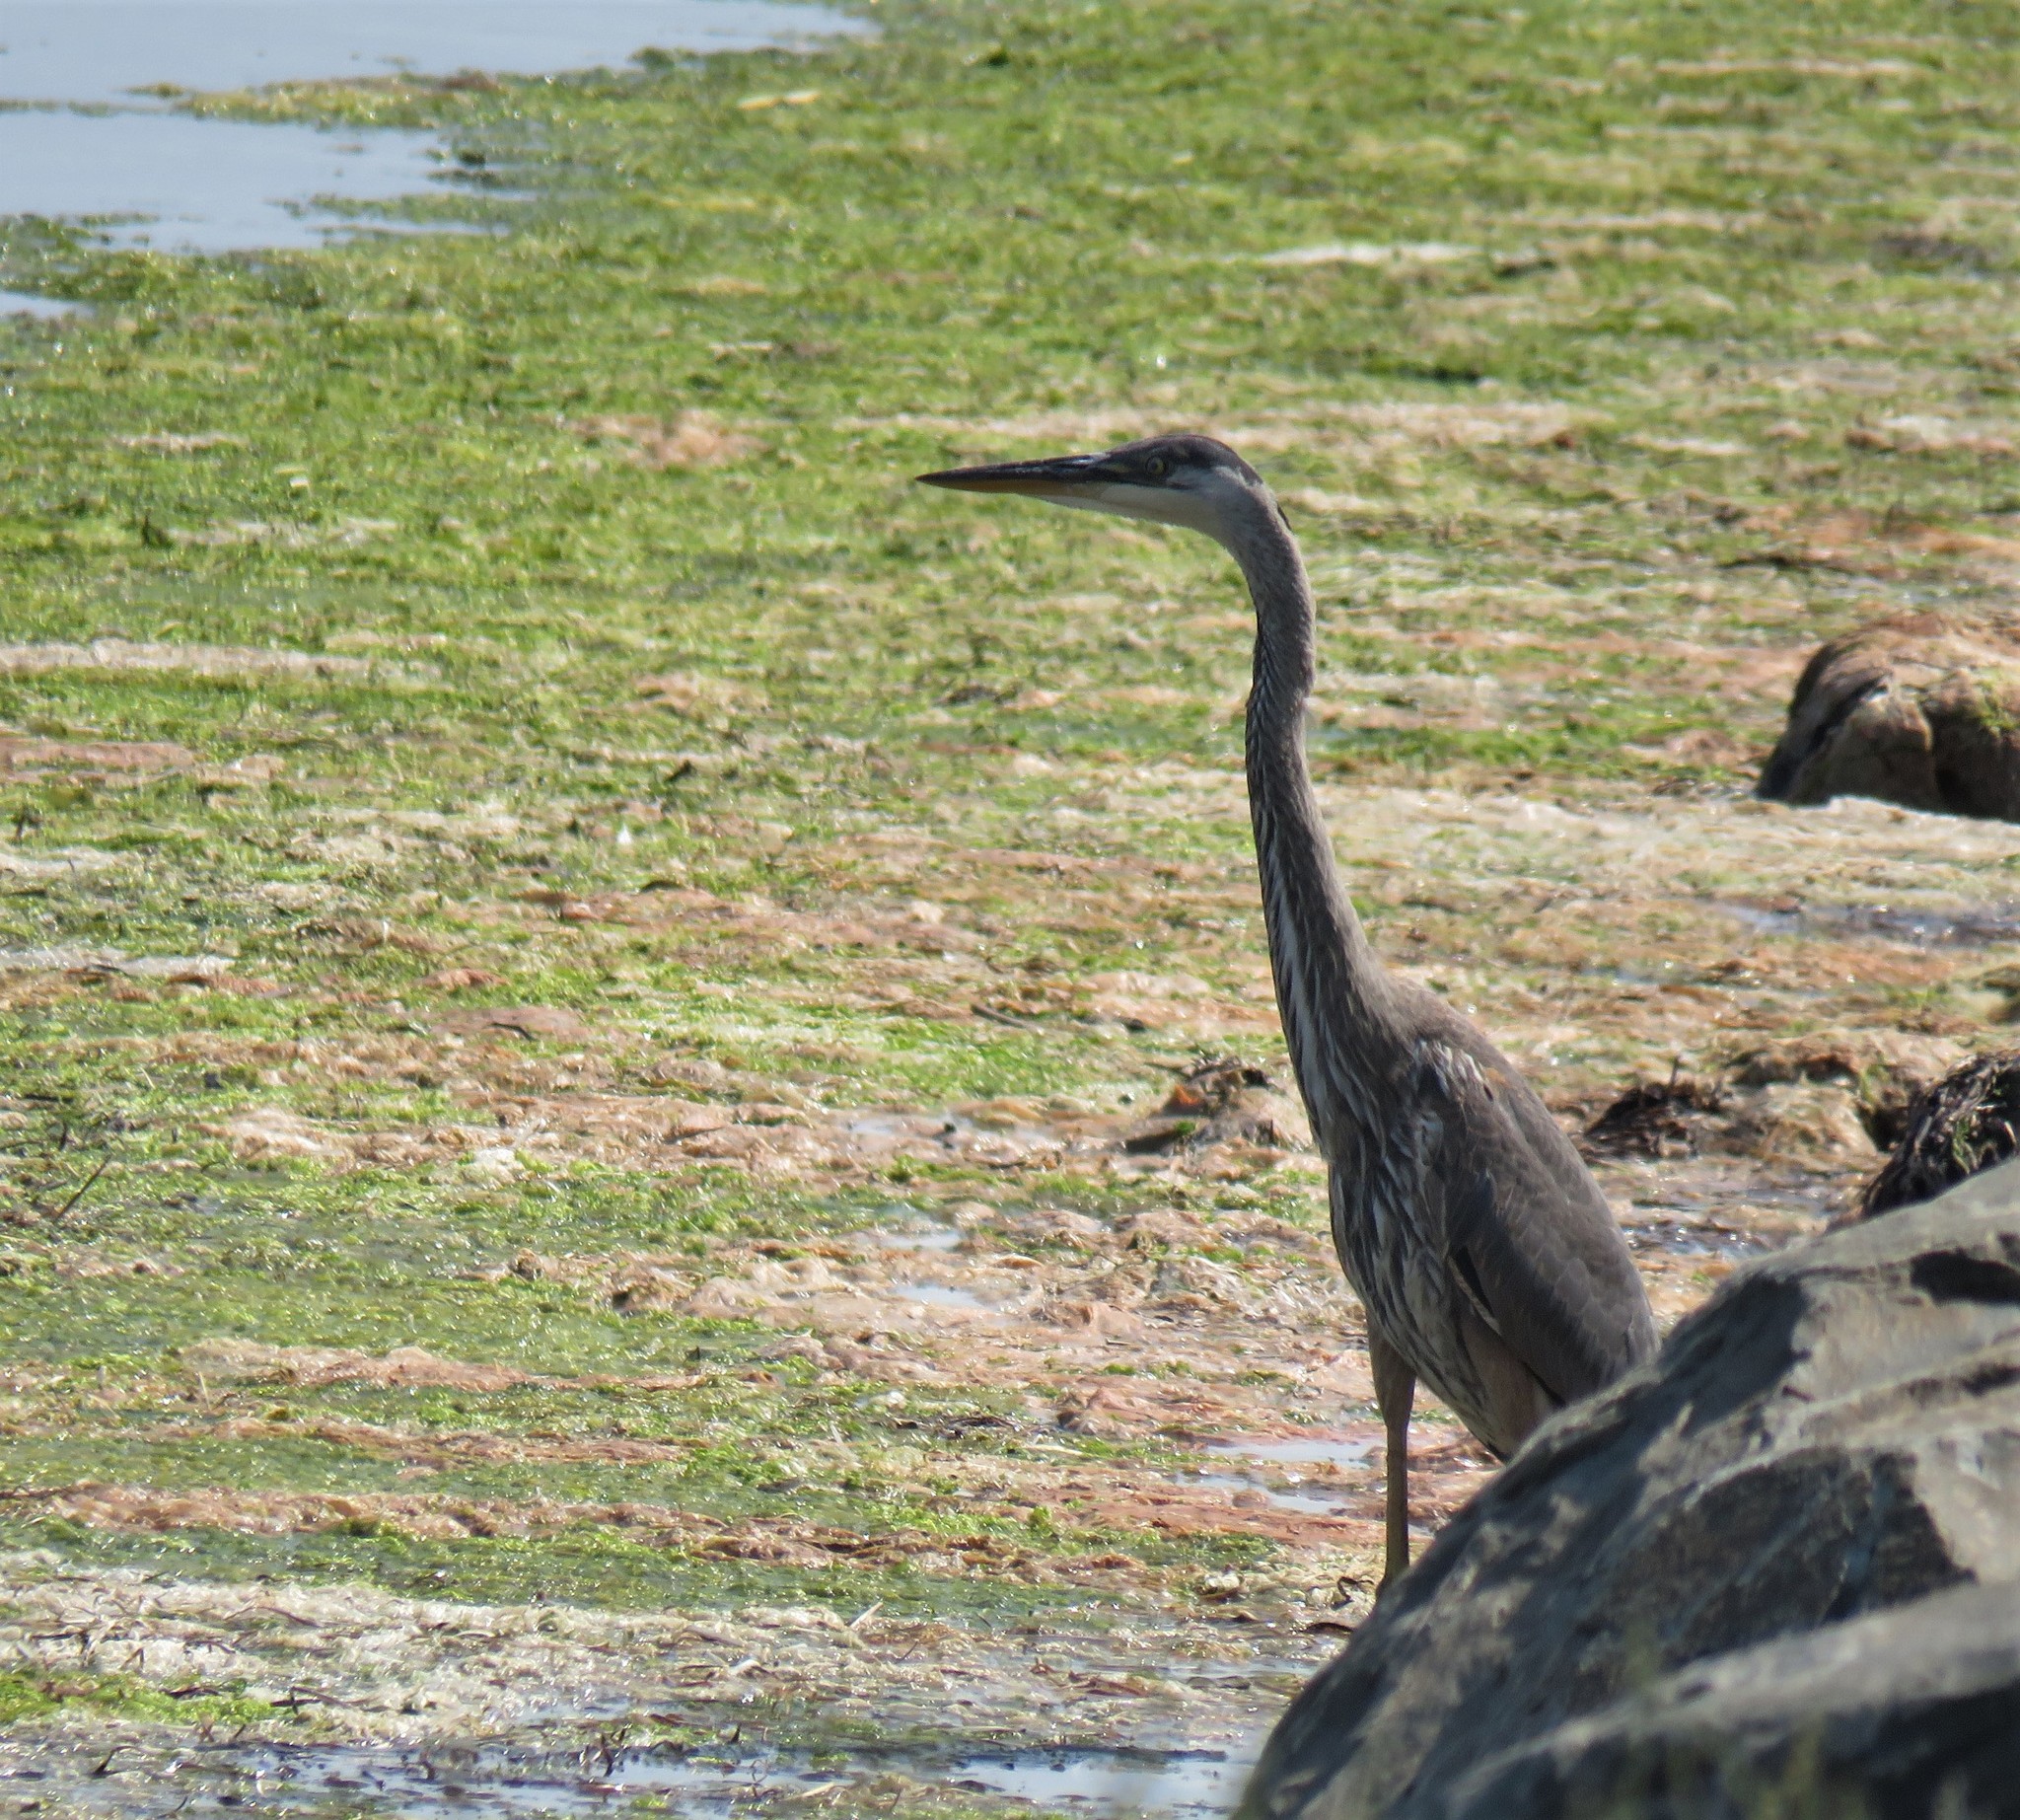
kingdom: Animalia
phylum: Chordata
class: Aves
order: Pelecaniformes
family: Ardeidae
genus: Ardea
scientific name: Ardea herodias
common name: Great blue heron
